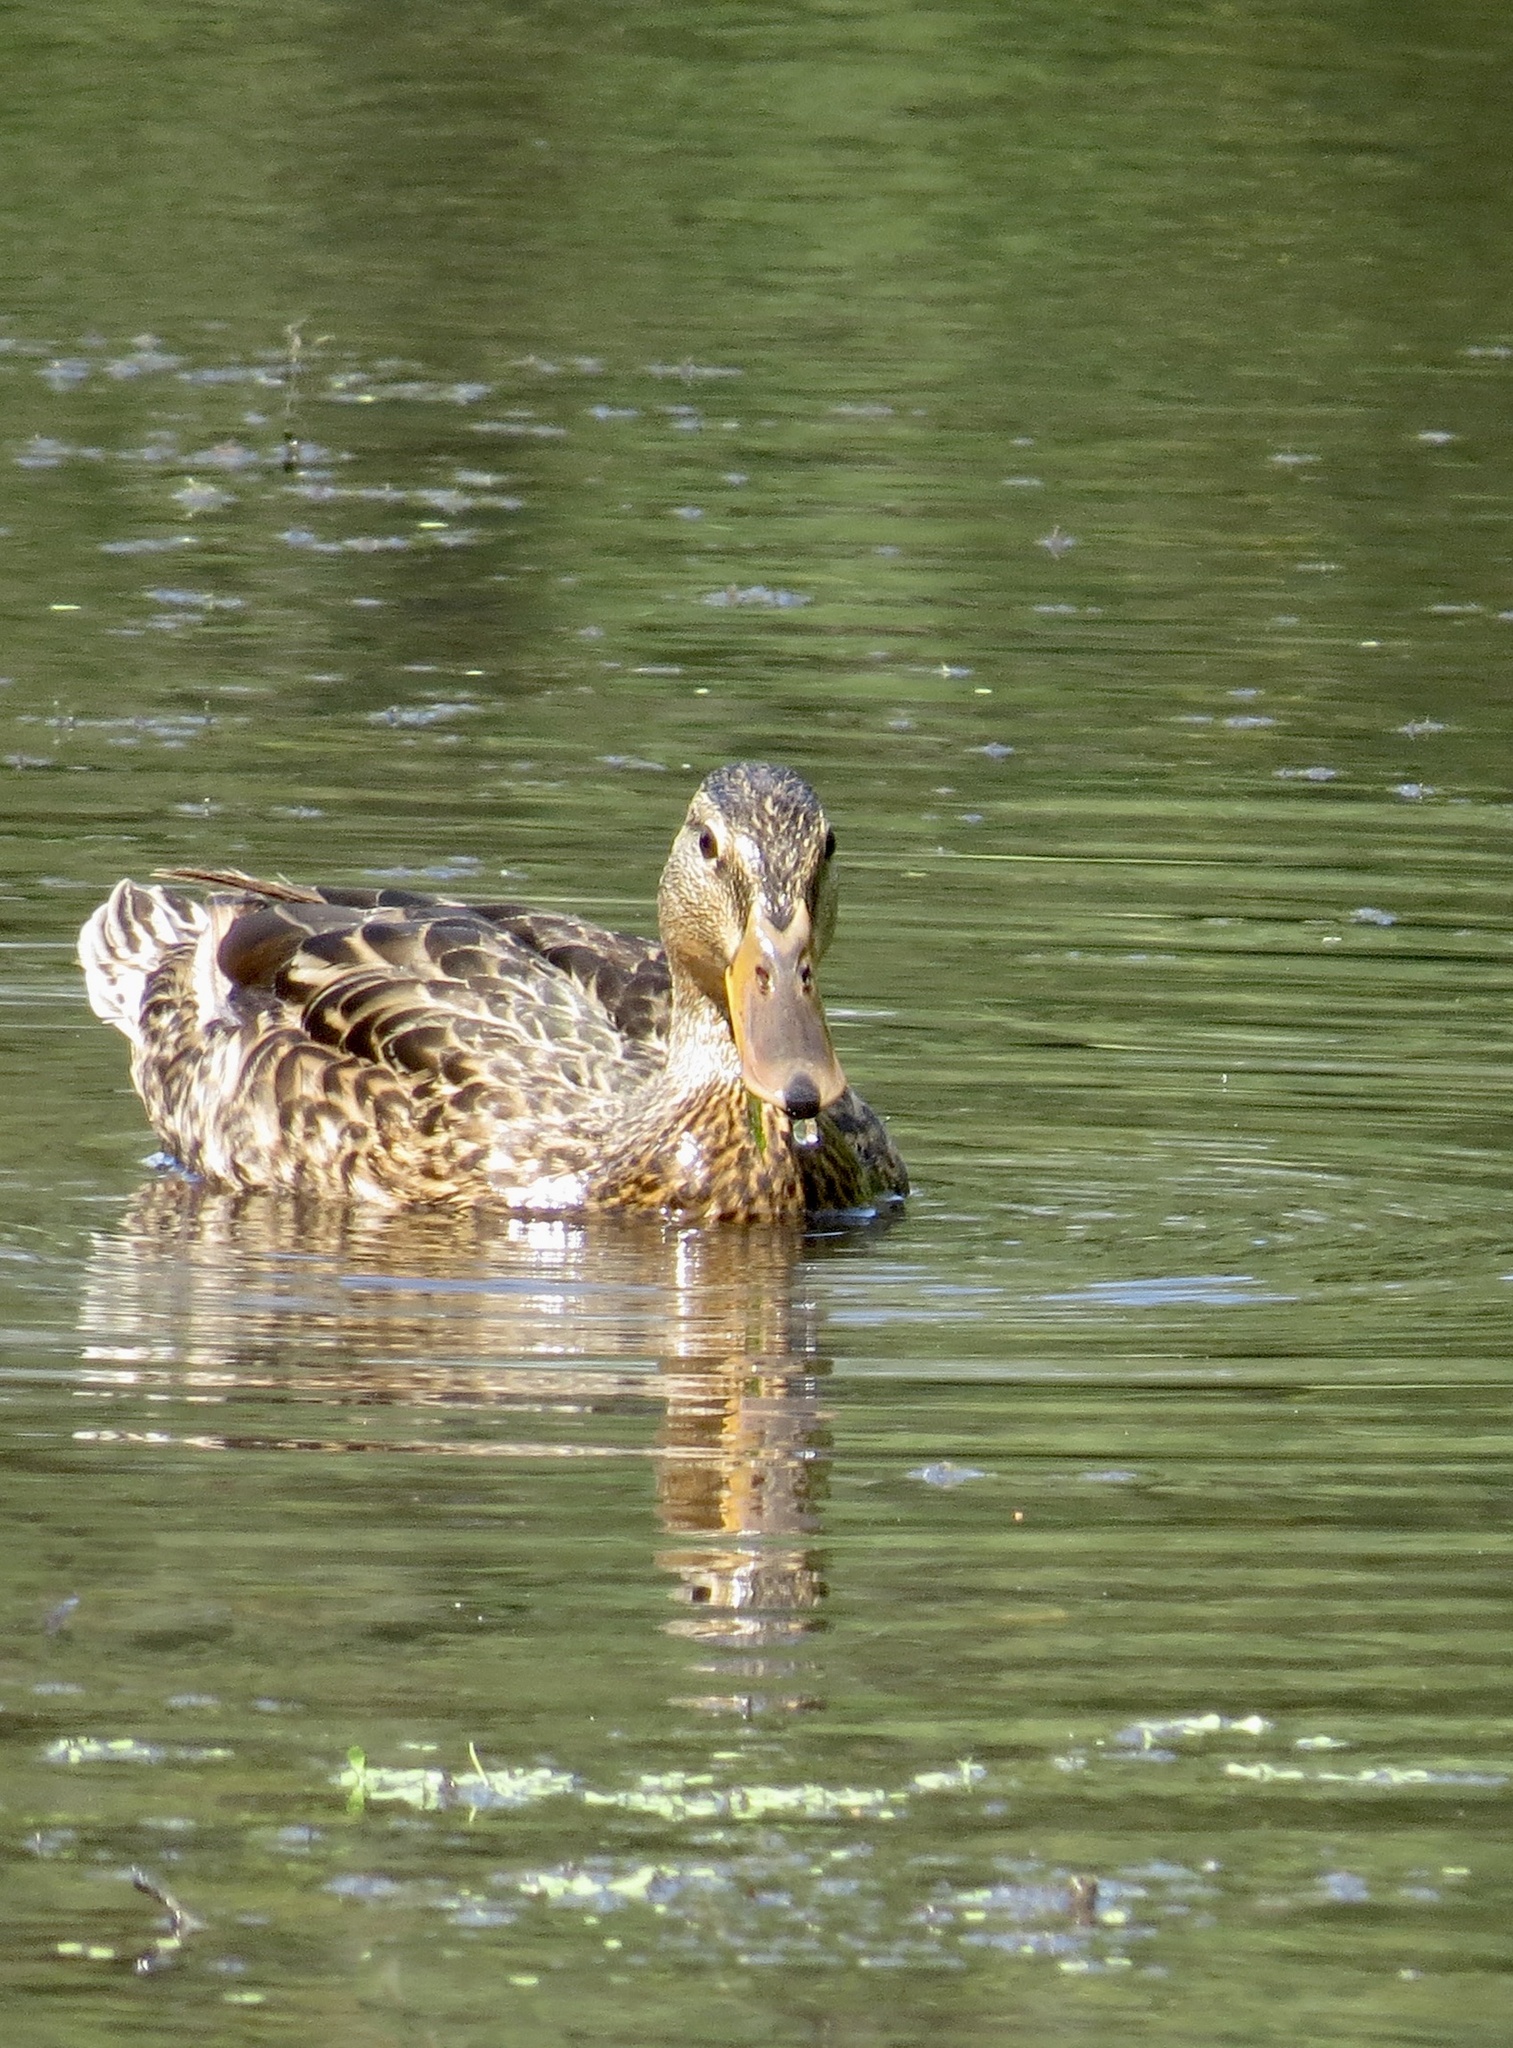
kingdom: Animalia
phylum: Chordata
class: Aves
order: Anseriformes
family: Anatidae
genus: Anas
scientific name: Anas platyrhynchos
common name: Mallard
